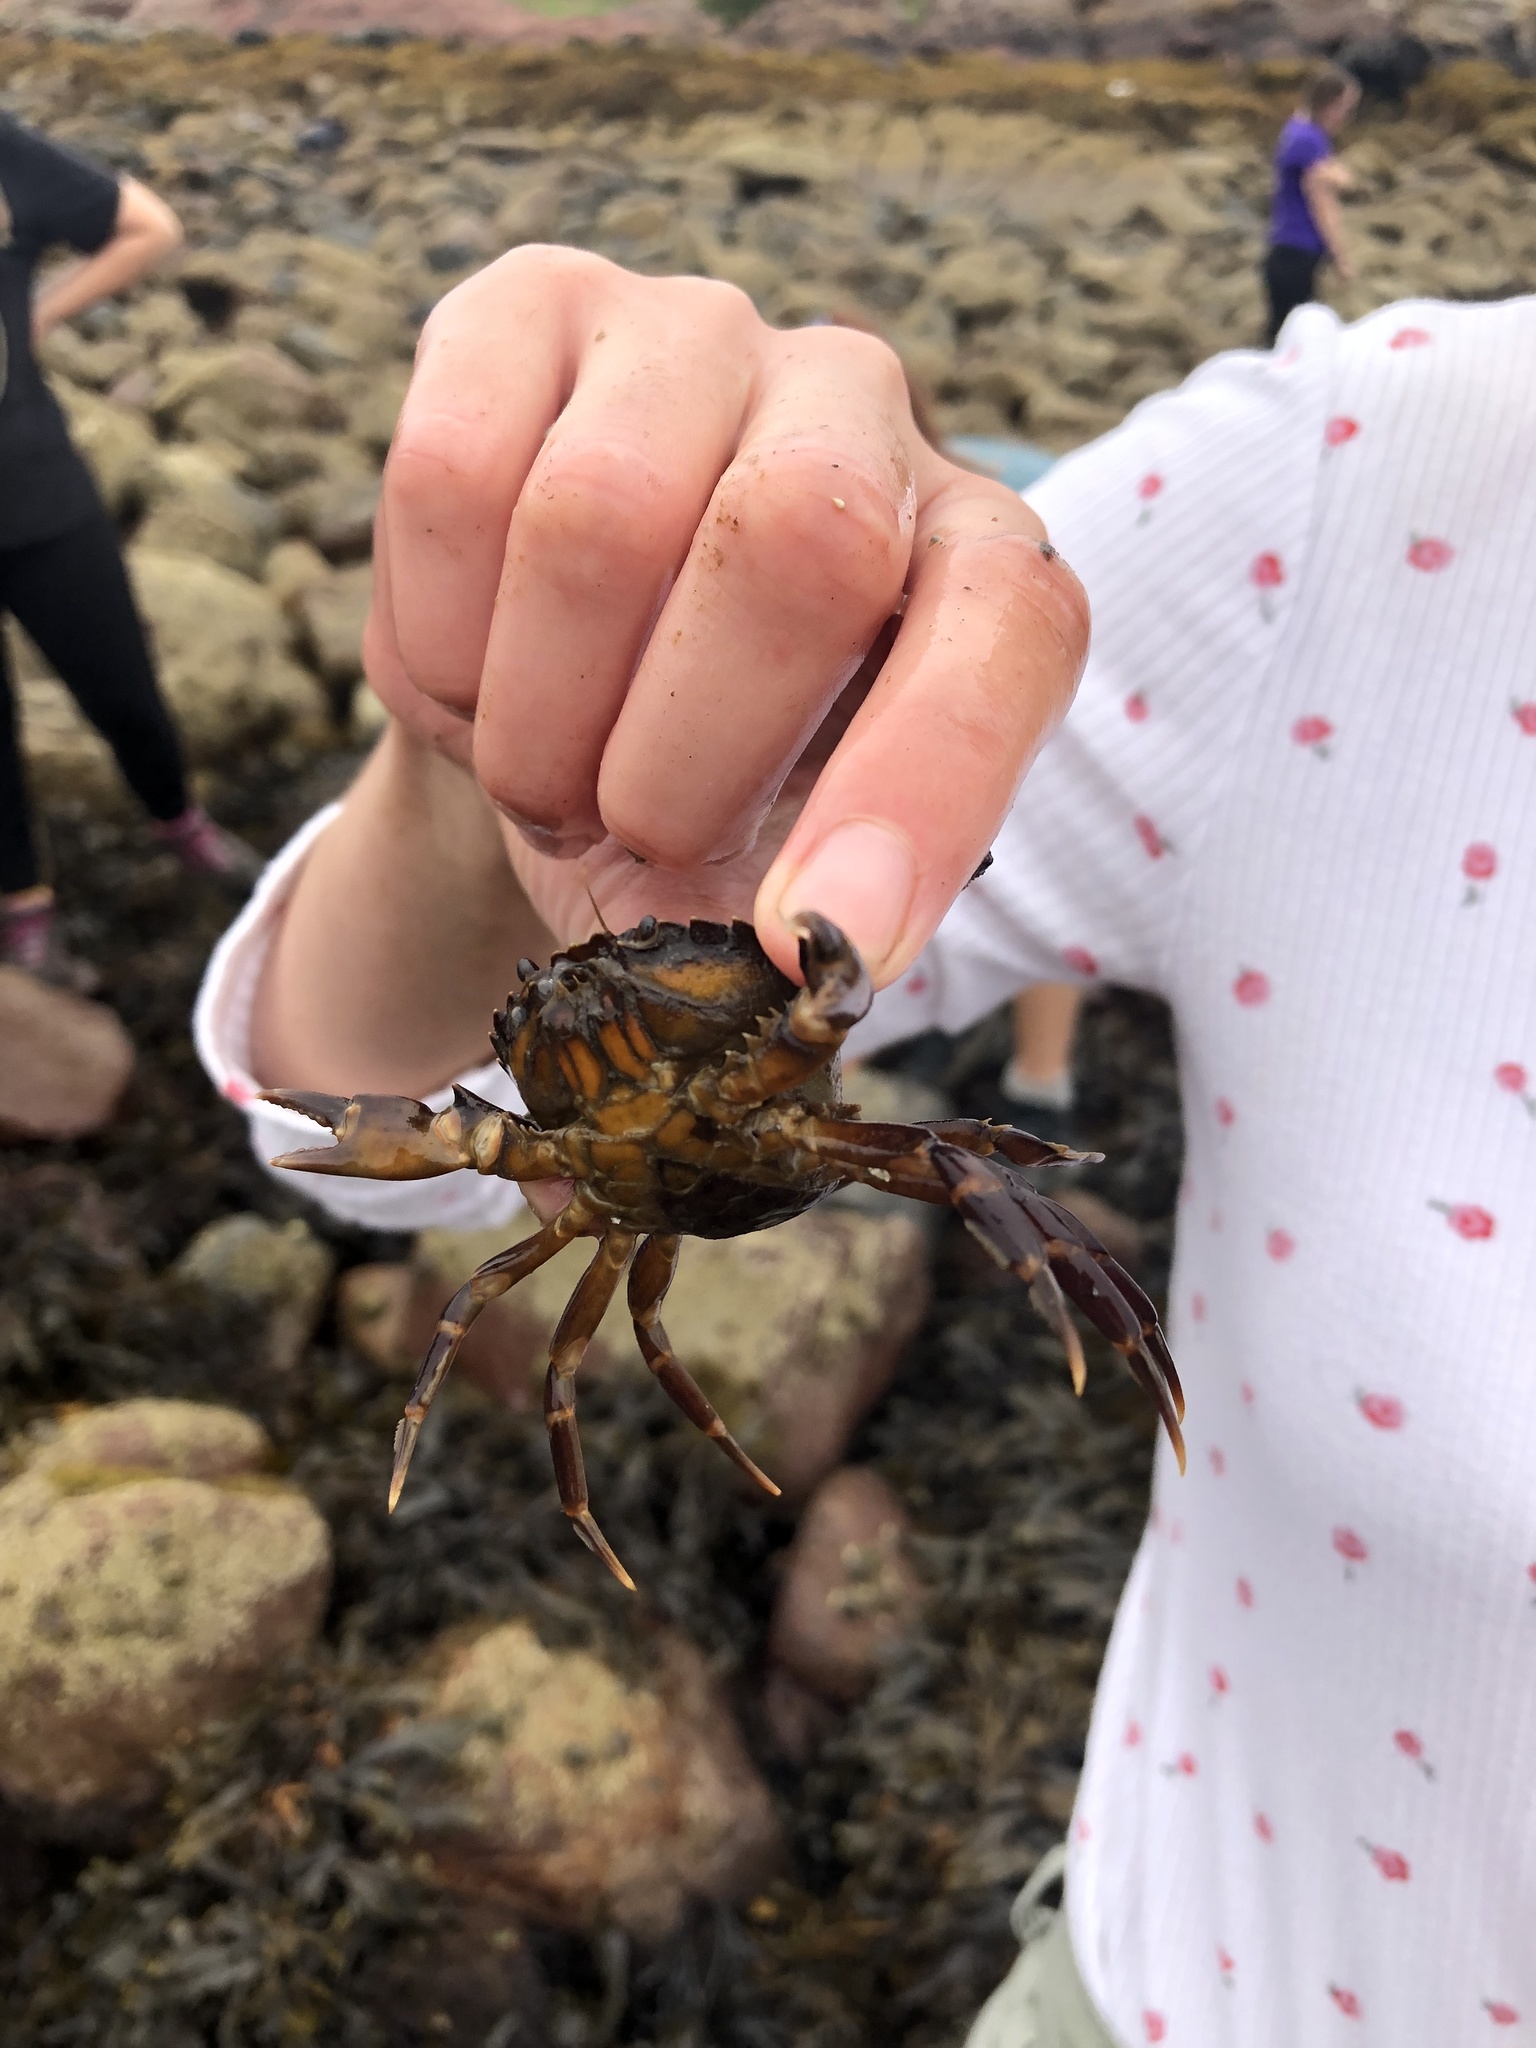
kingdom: Animalia
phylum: Arthropoda
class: Malacostraca
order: Decapoda
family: Carcinidae
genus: Carcinus
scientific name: Carcinus maenas
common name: European green crab
